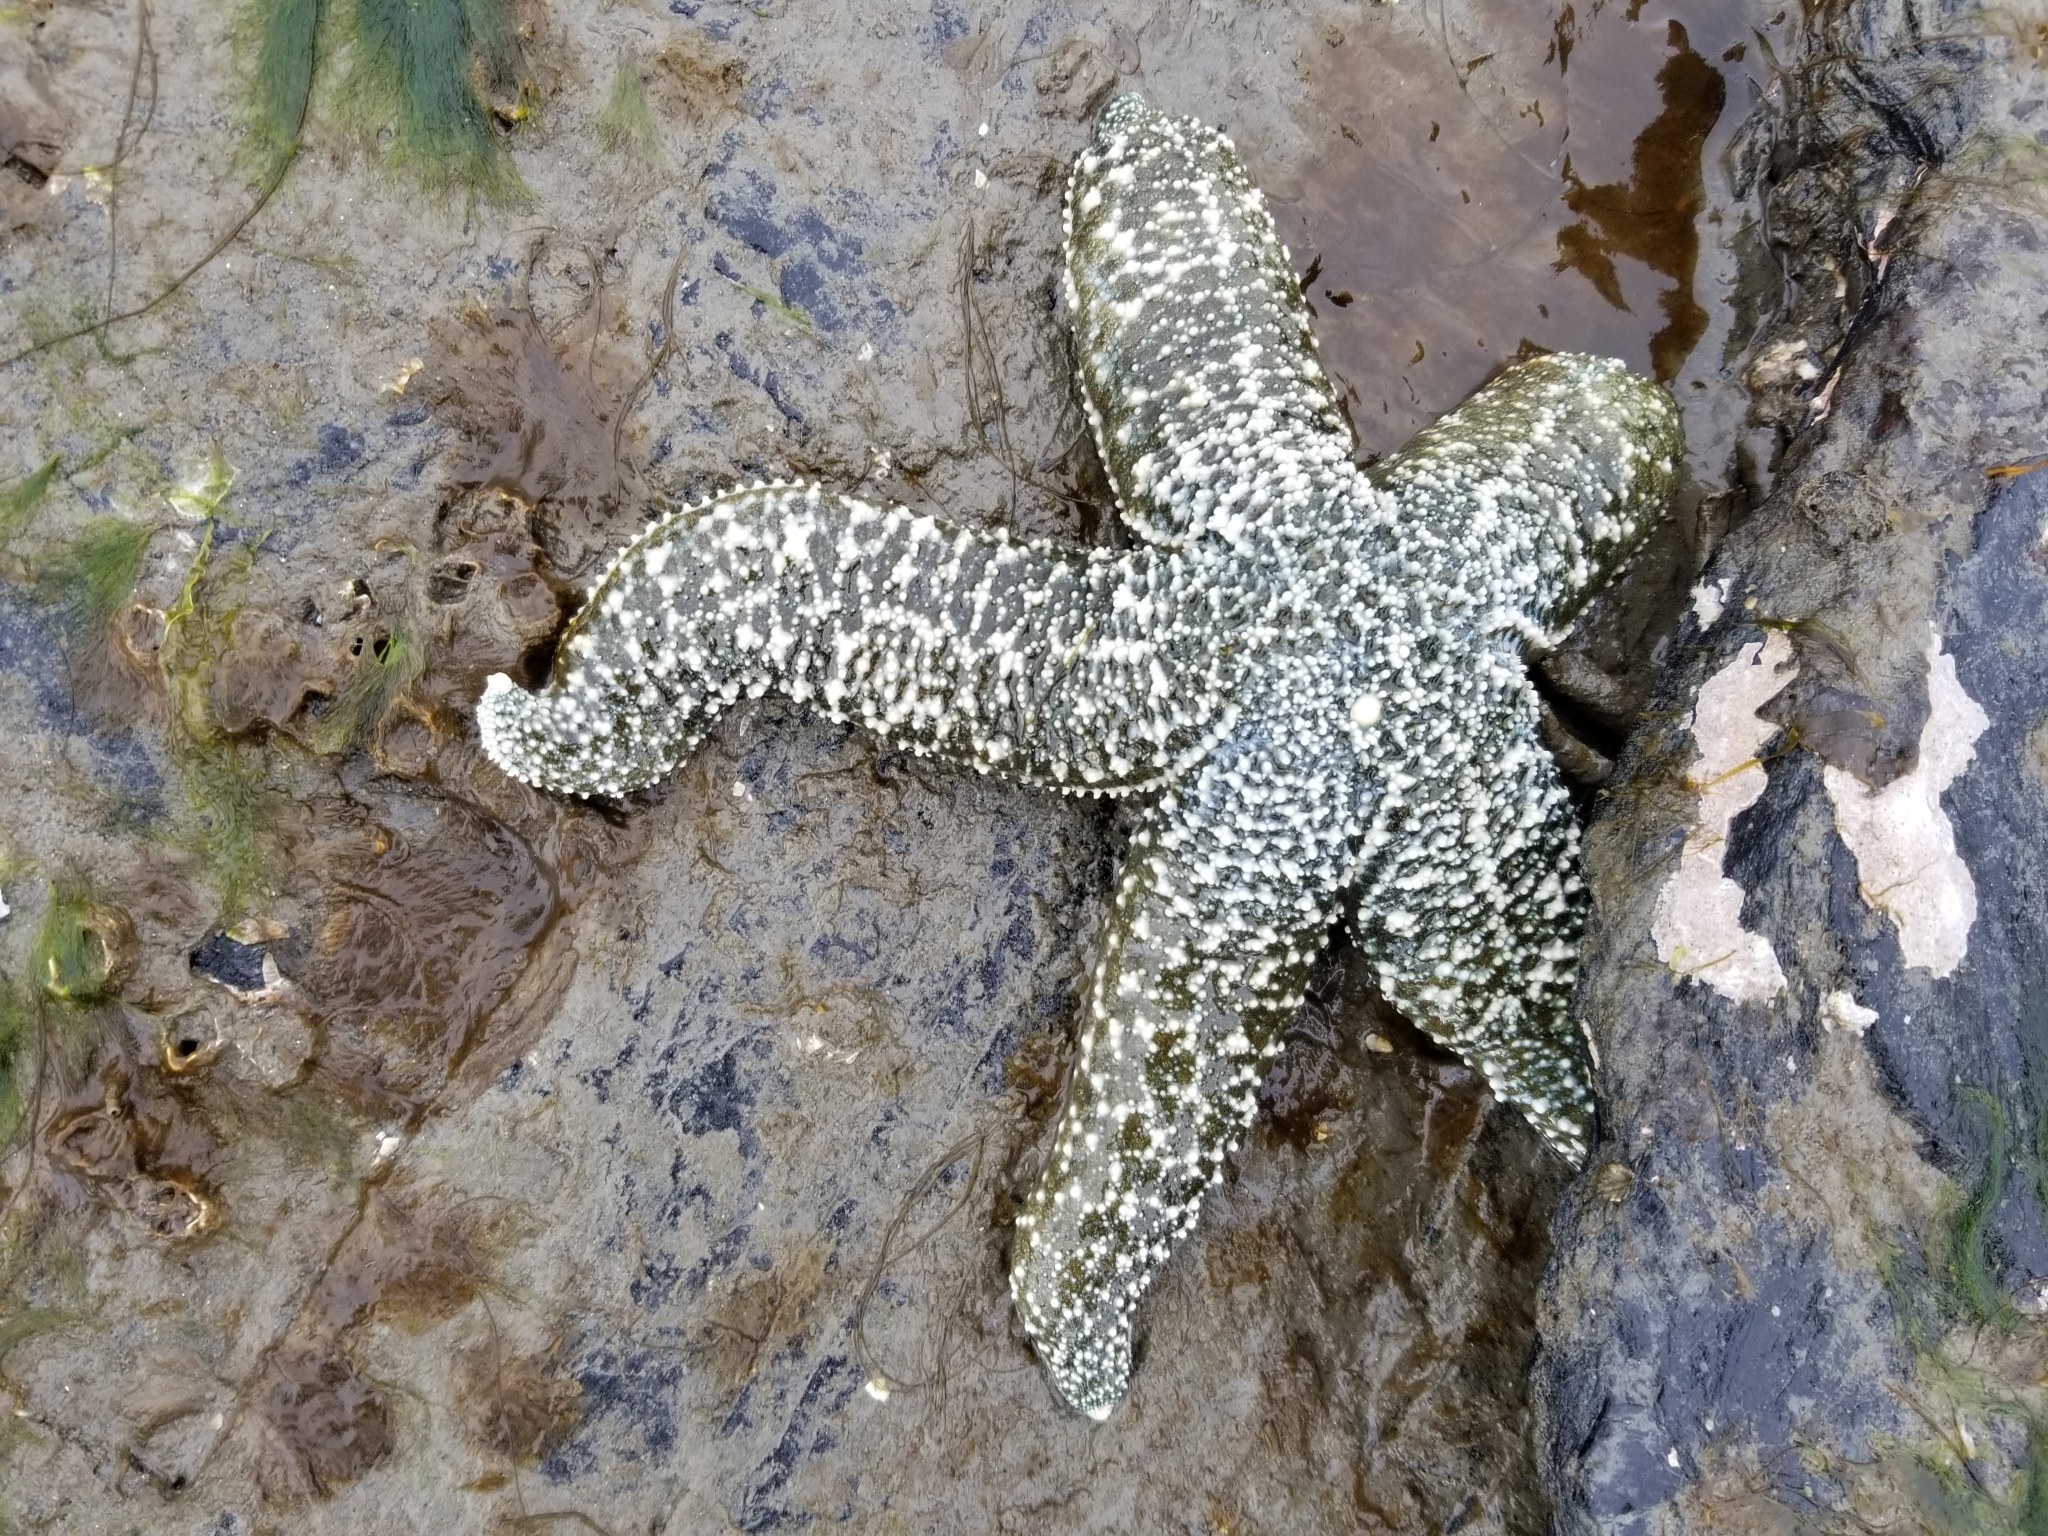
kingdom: Animalia
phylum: Echinodermata
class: Asteroidea
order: Forcipulatida
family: Asteriidae
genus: Evasterias
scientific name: Evasterias troschelii
